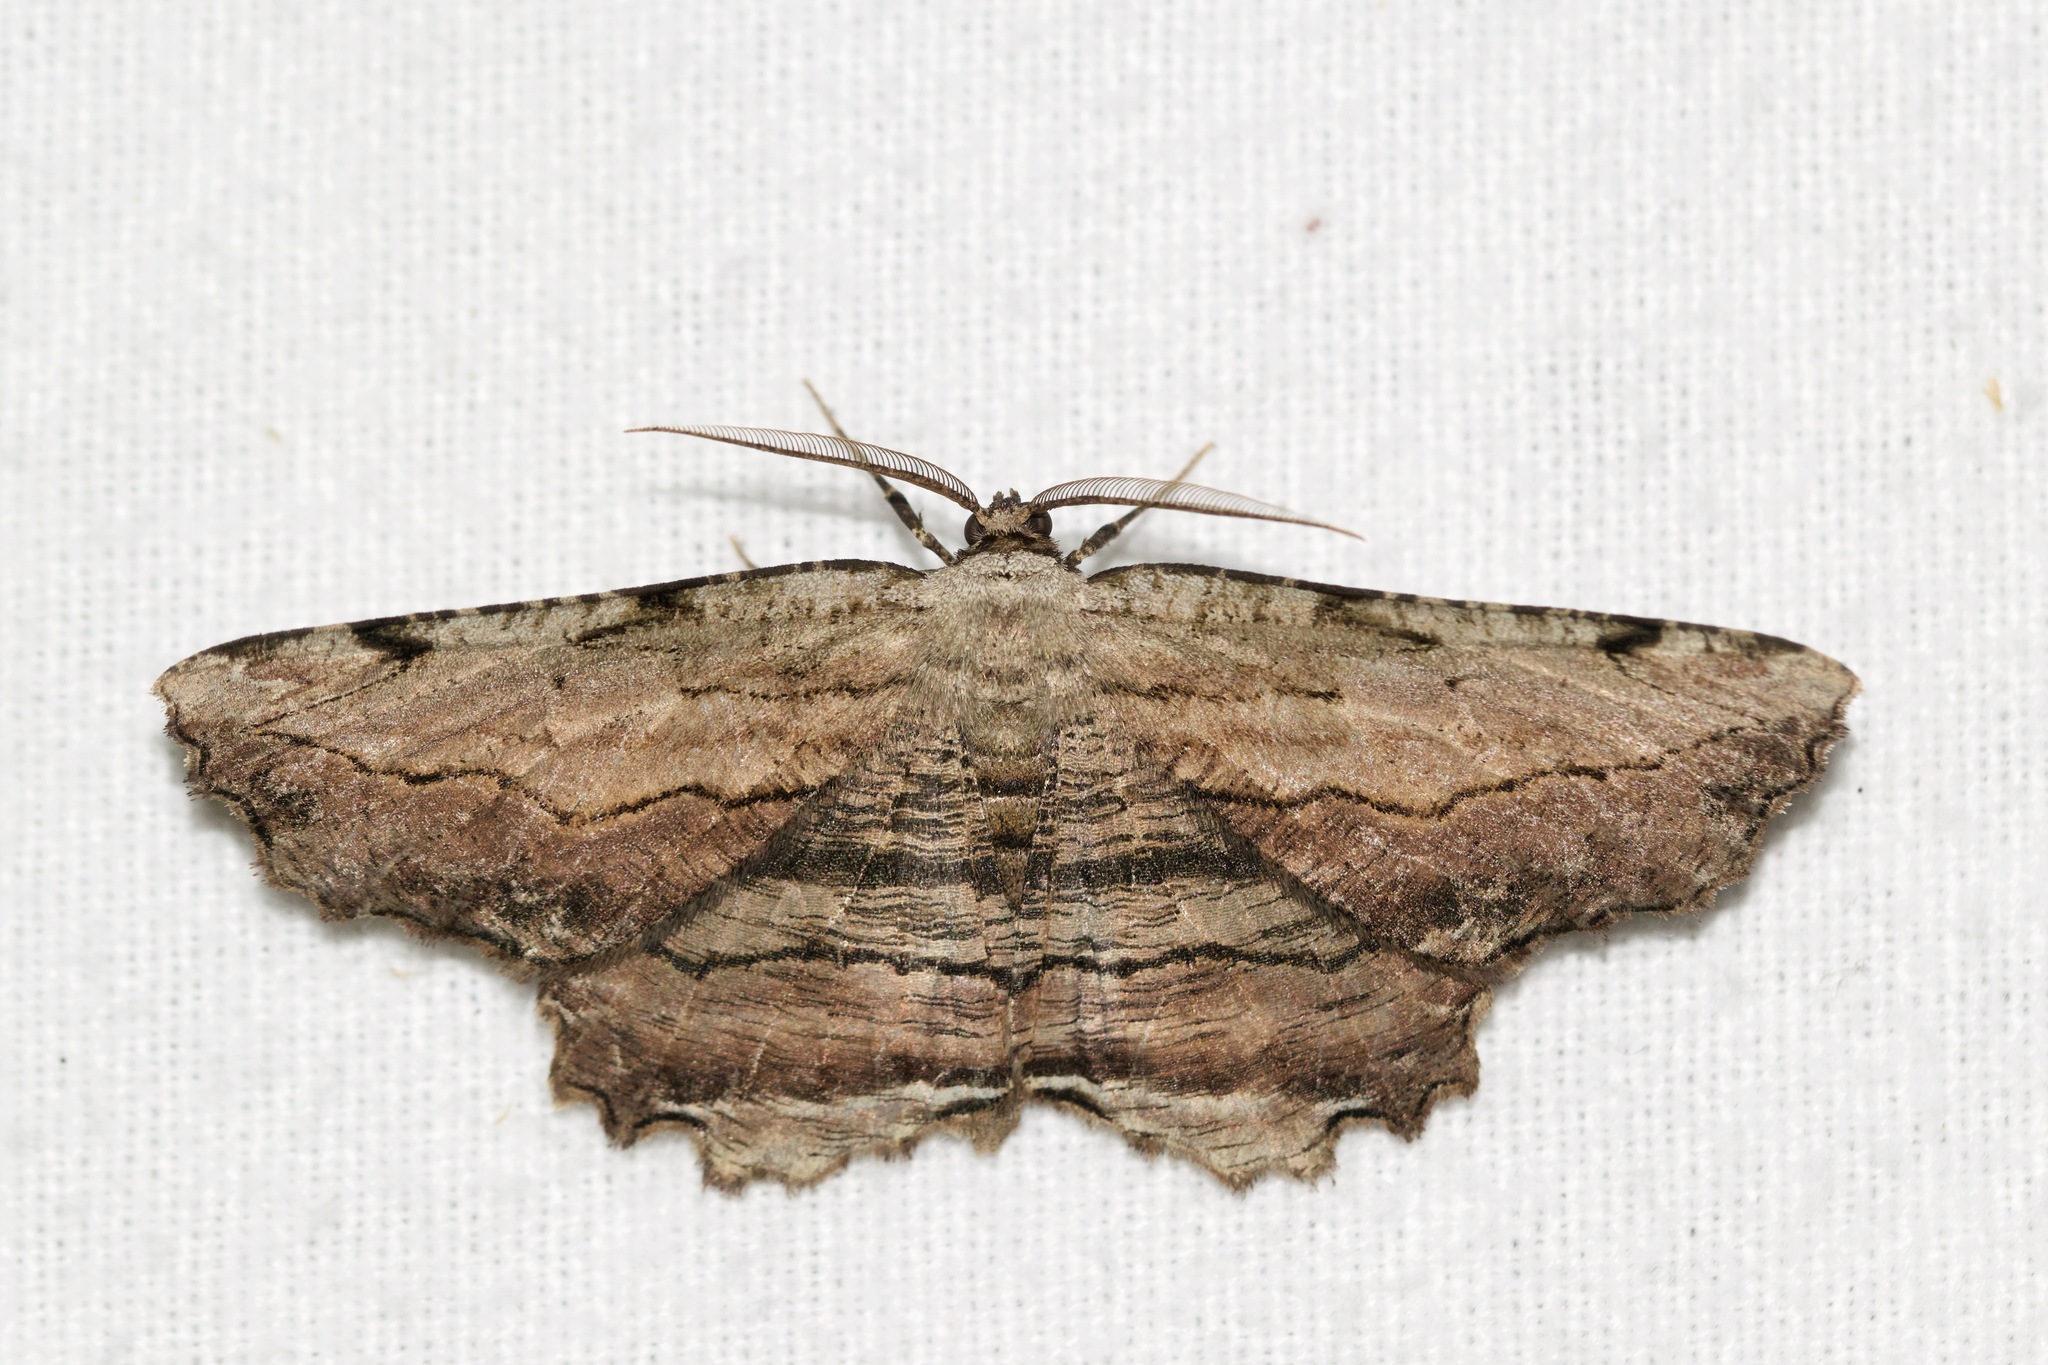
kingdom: Animalia
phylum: Arthropoda
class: Insecta
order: Lepidoptera
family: Geometridae
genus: Lytrosis
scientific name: Lytrosis unitaria
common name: Common lytrosis
